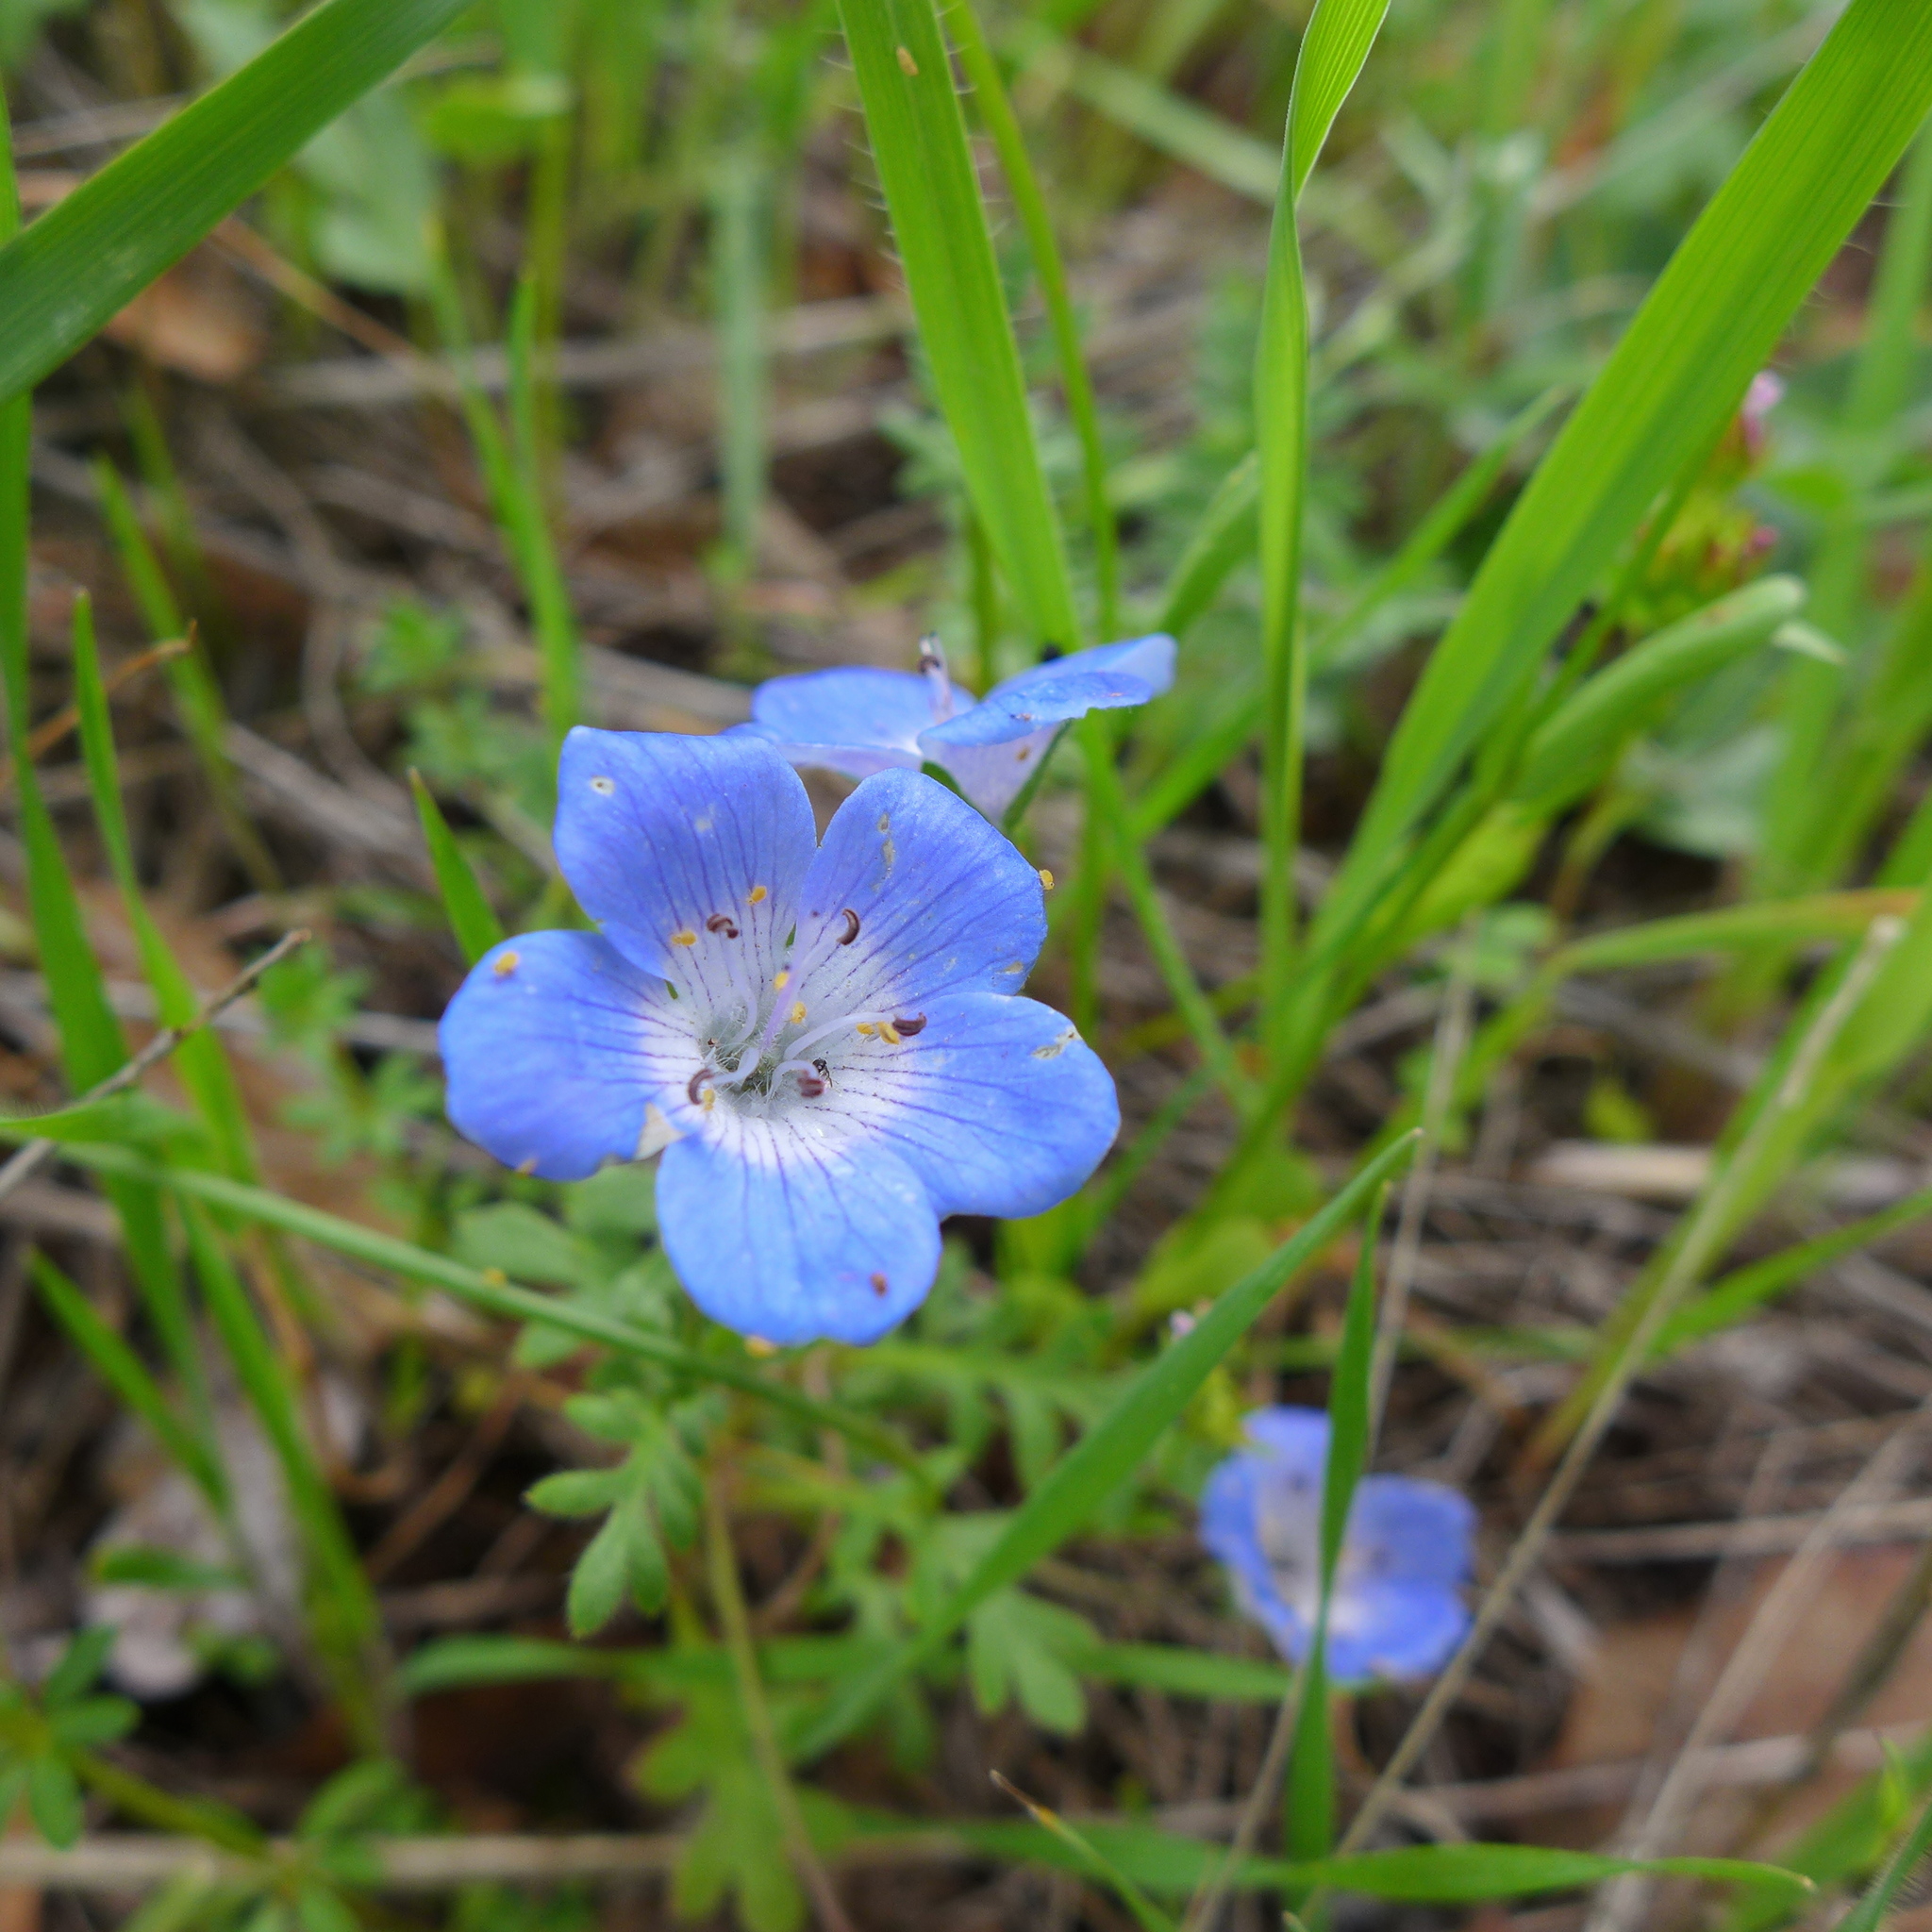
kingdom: Plantae
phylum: Tracheophyta
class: Magnoliopsida
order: Boraginales
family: Hydrophyllaceae
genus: Nemophila
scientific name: Nemophila menziesii
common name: Baby's-blue-eyes
